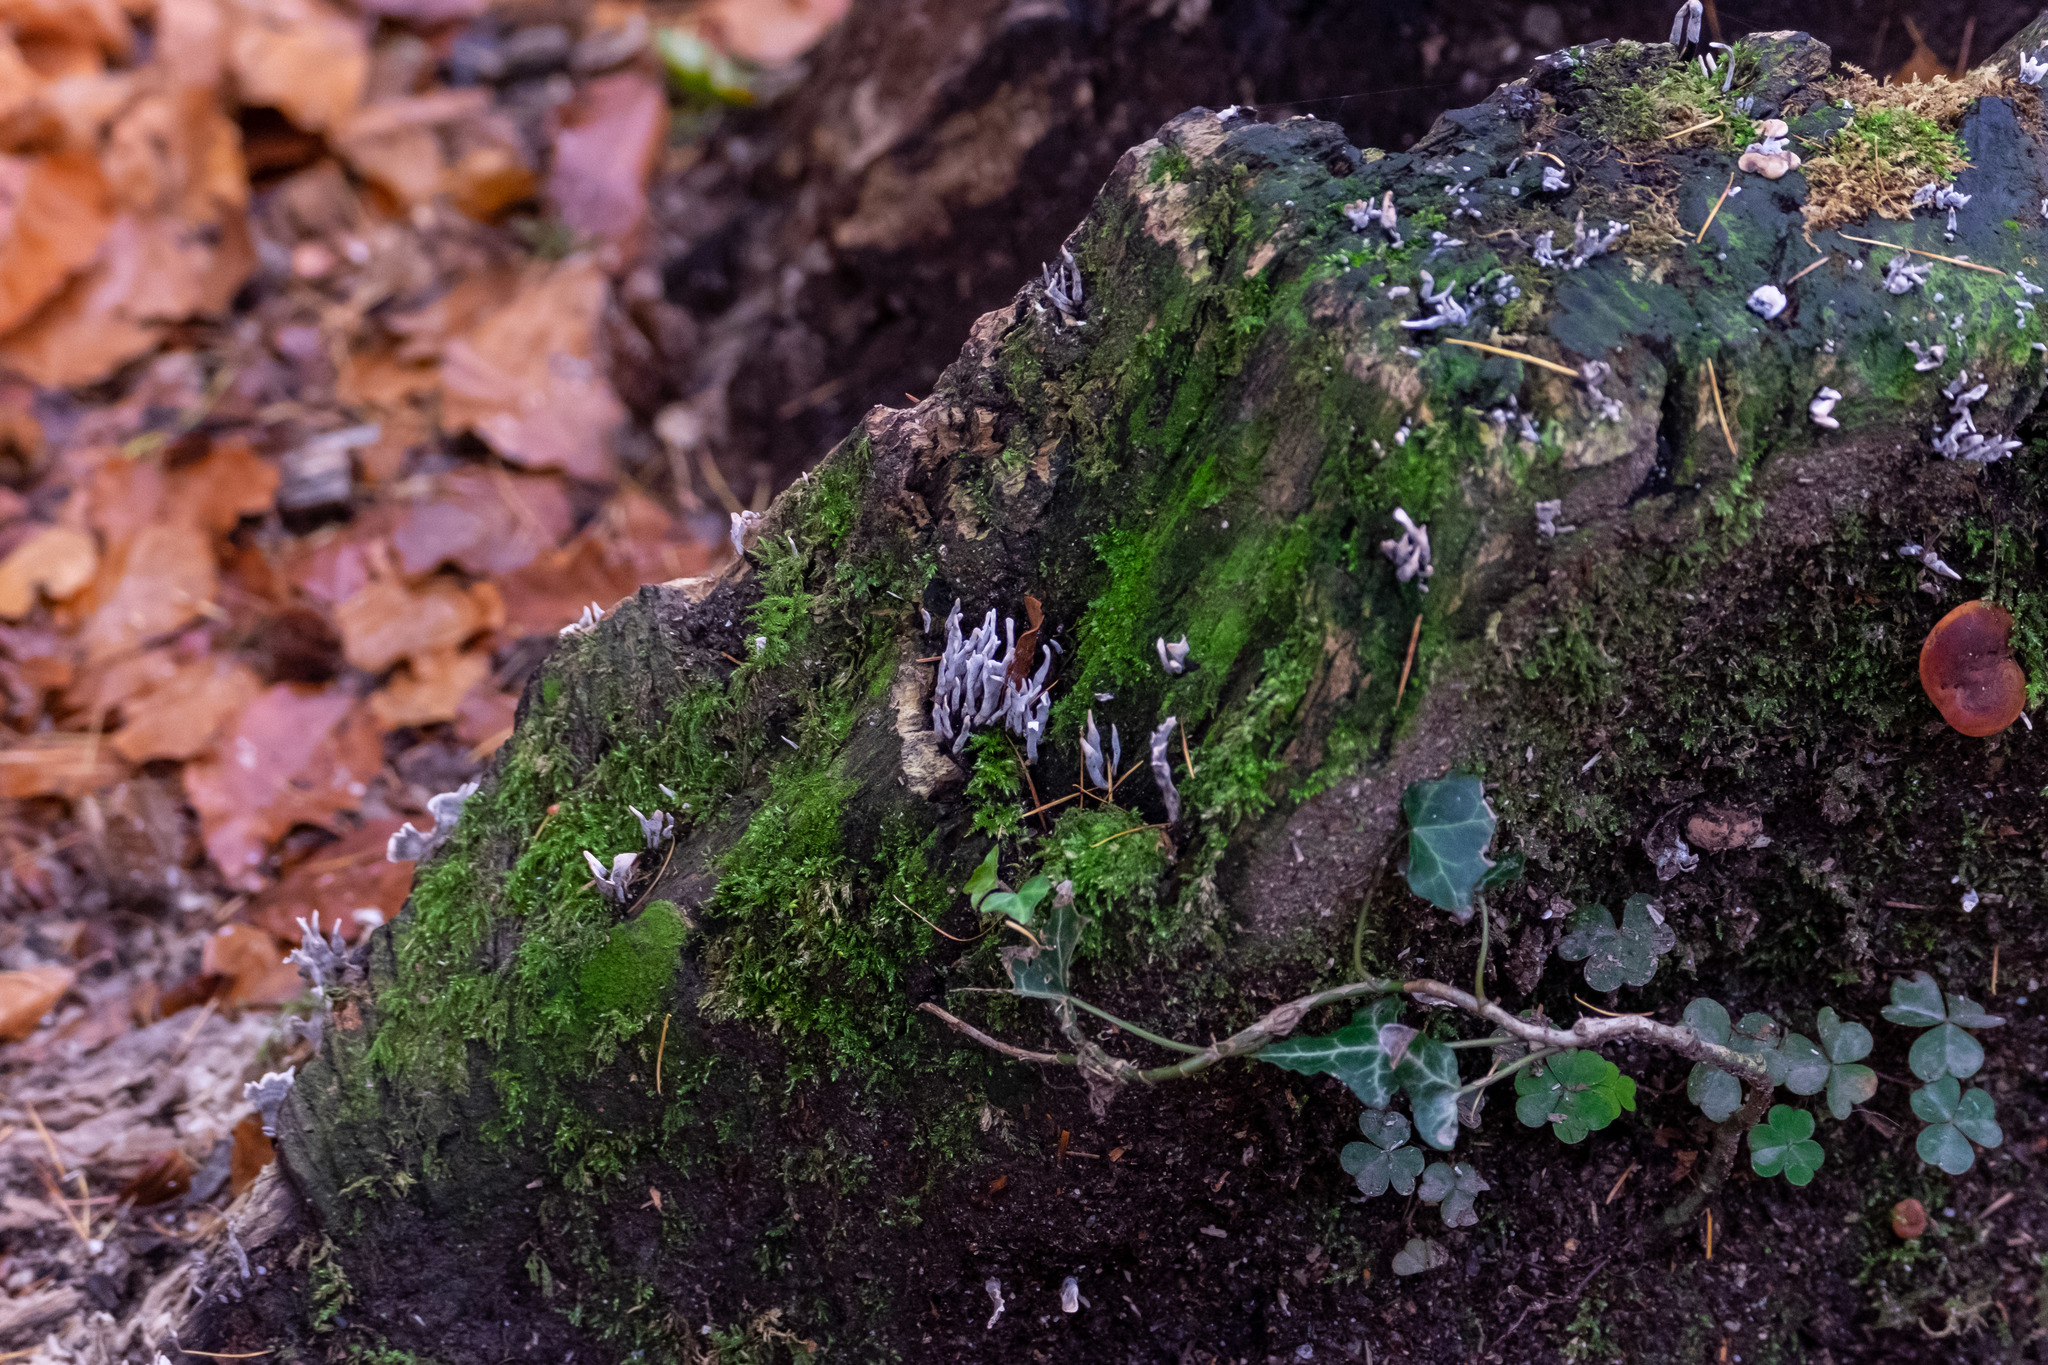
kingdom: Fungi
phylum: Ascomycota
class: Sordariomycetes
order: Xylariales
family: Xylariaceae
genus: Xylaria
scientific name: Xylaria hypoxylon
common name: Candle-snuff fungus
